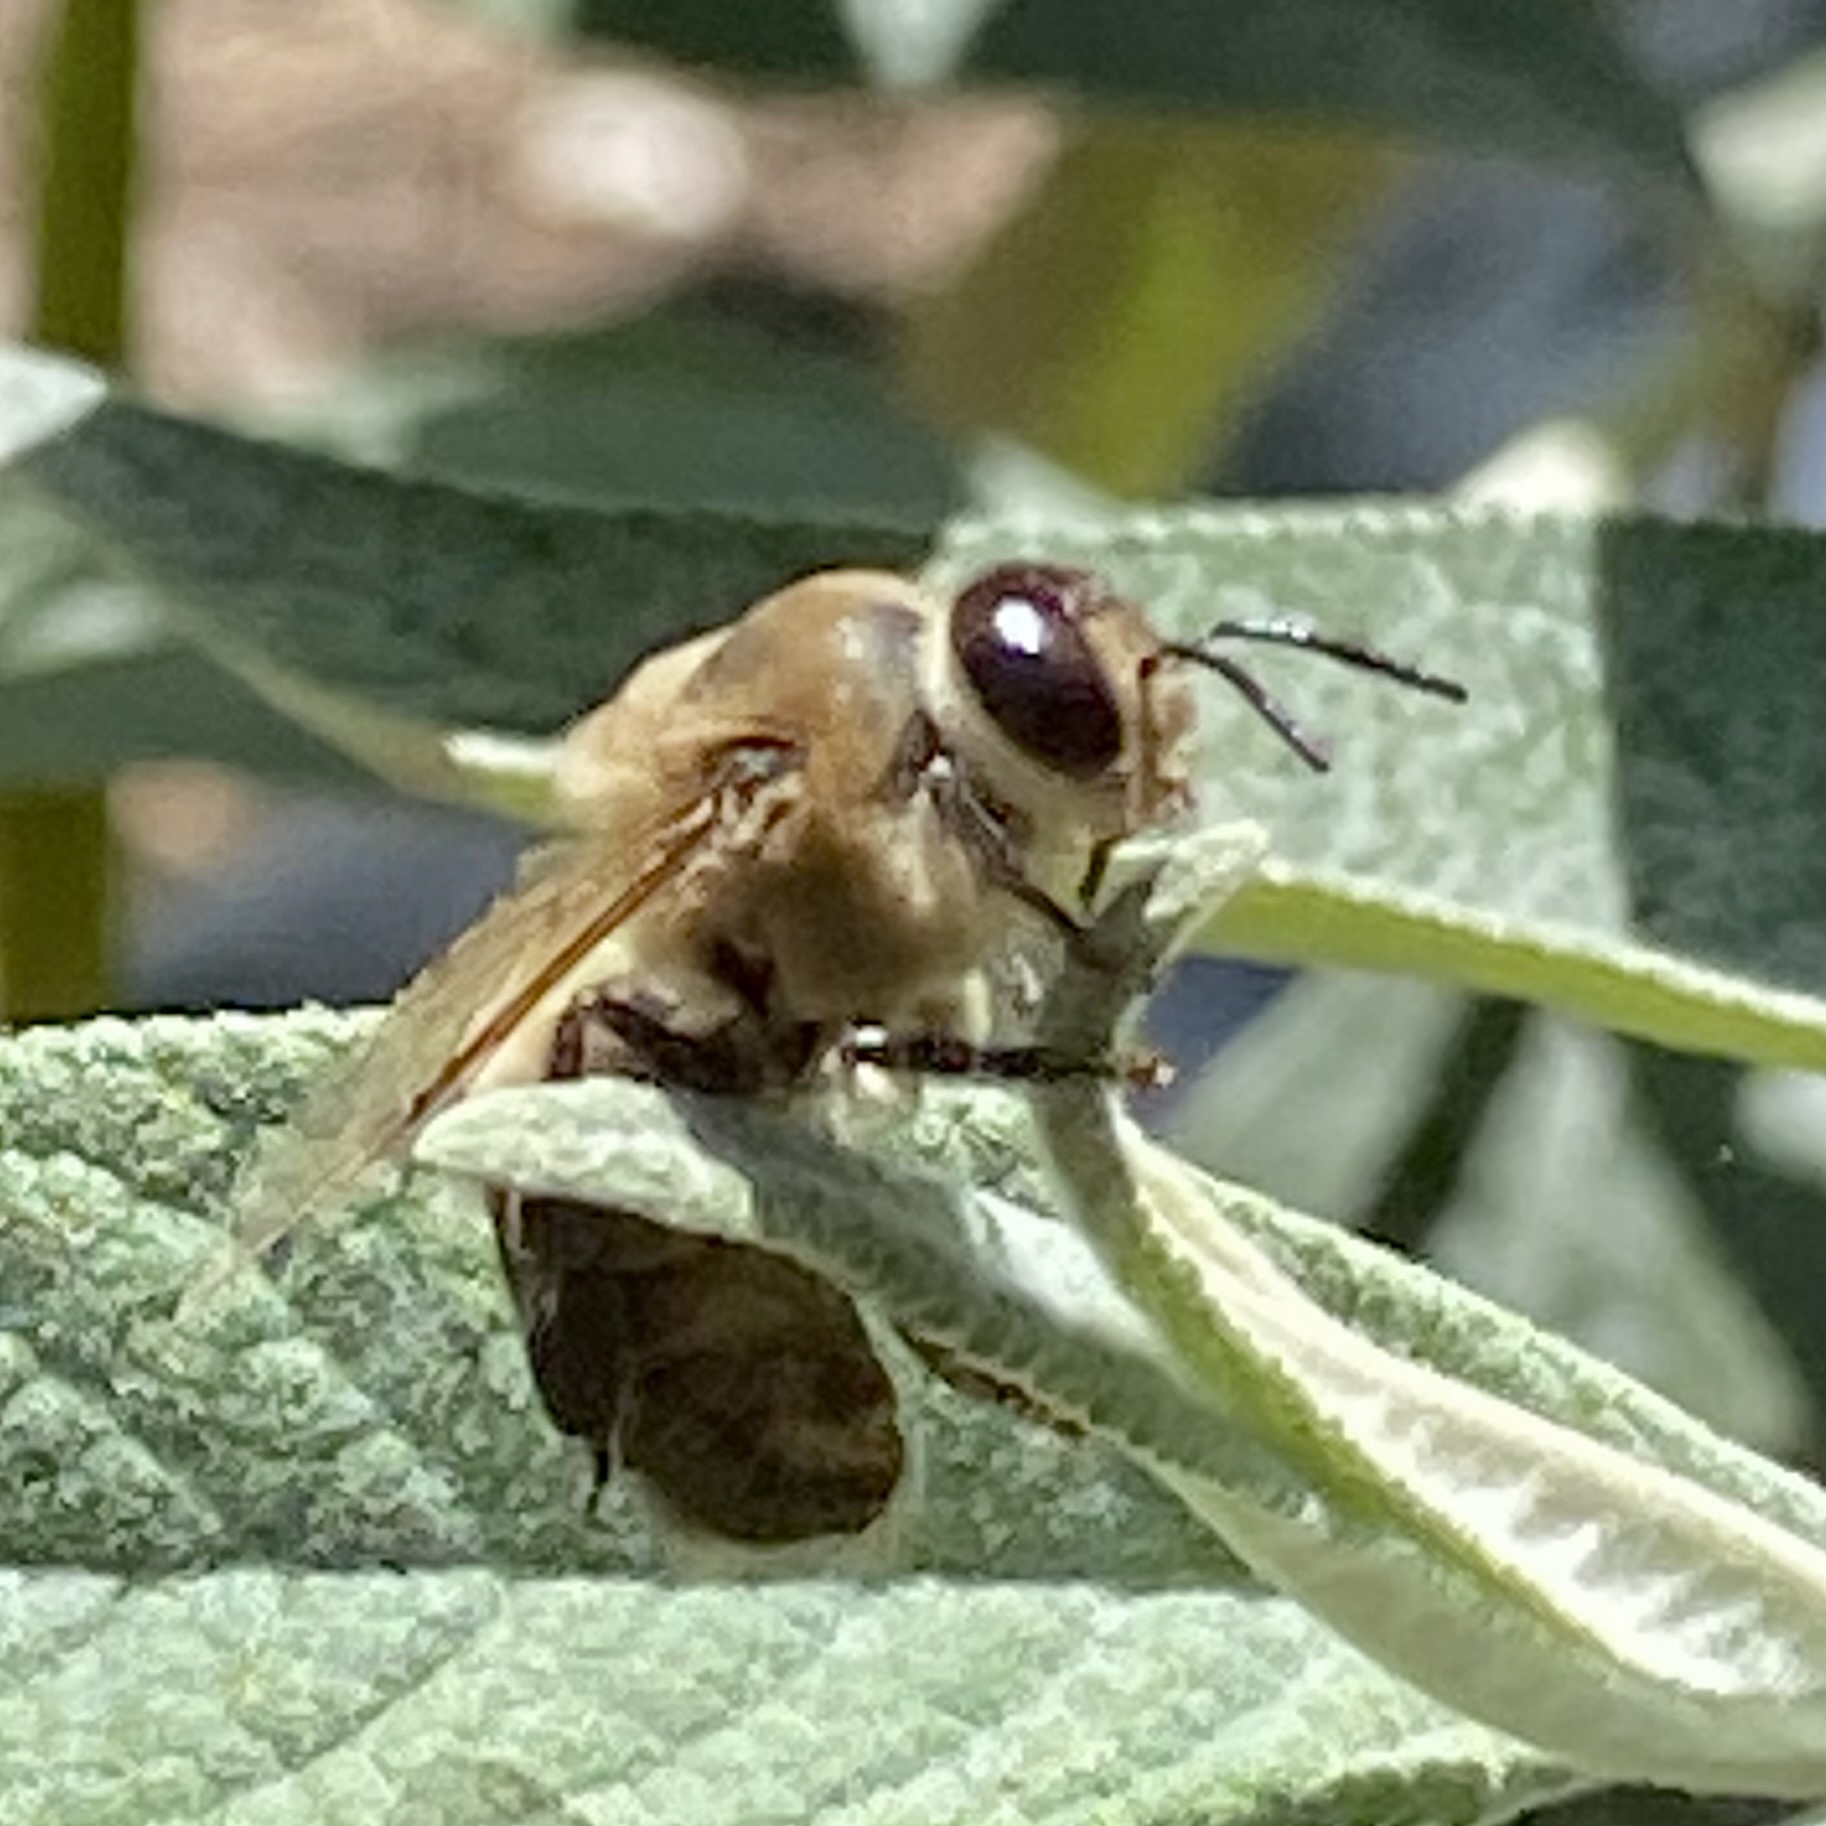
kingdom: Animalia
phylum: Arthropoda
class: Insecta
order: Hymenoptera
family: Apidae
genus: Apis
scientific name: Apis mellifera
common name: Honey bee
